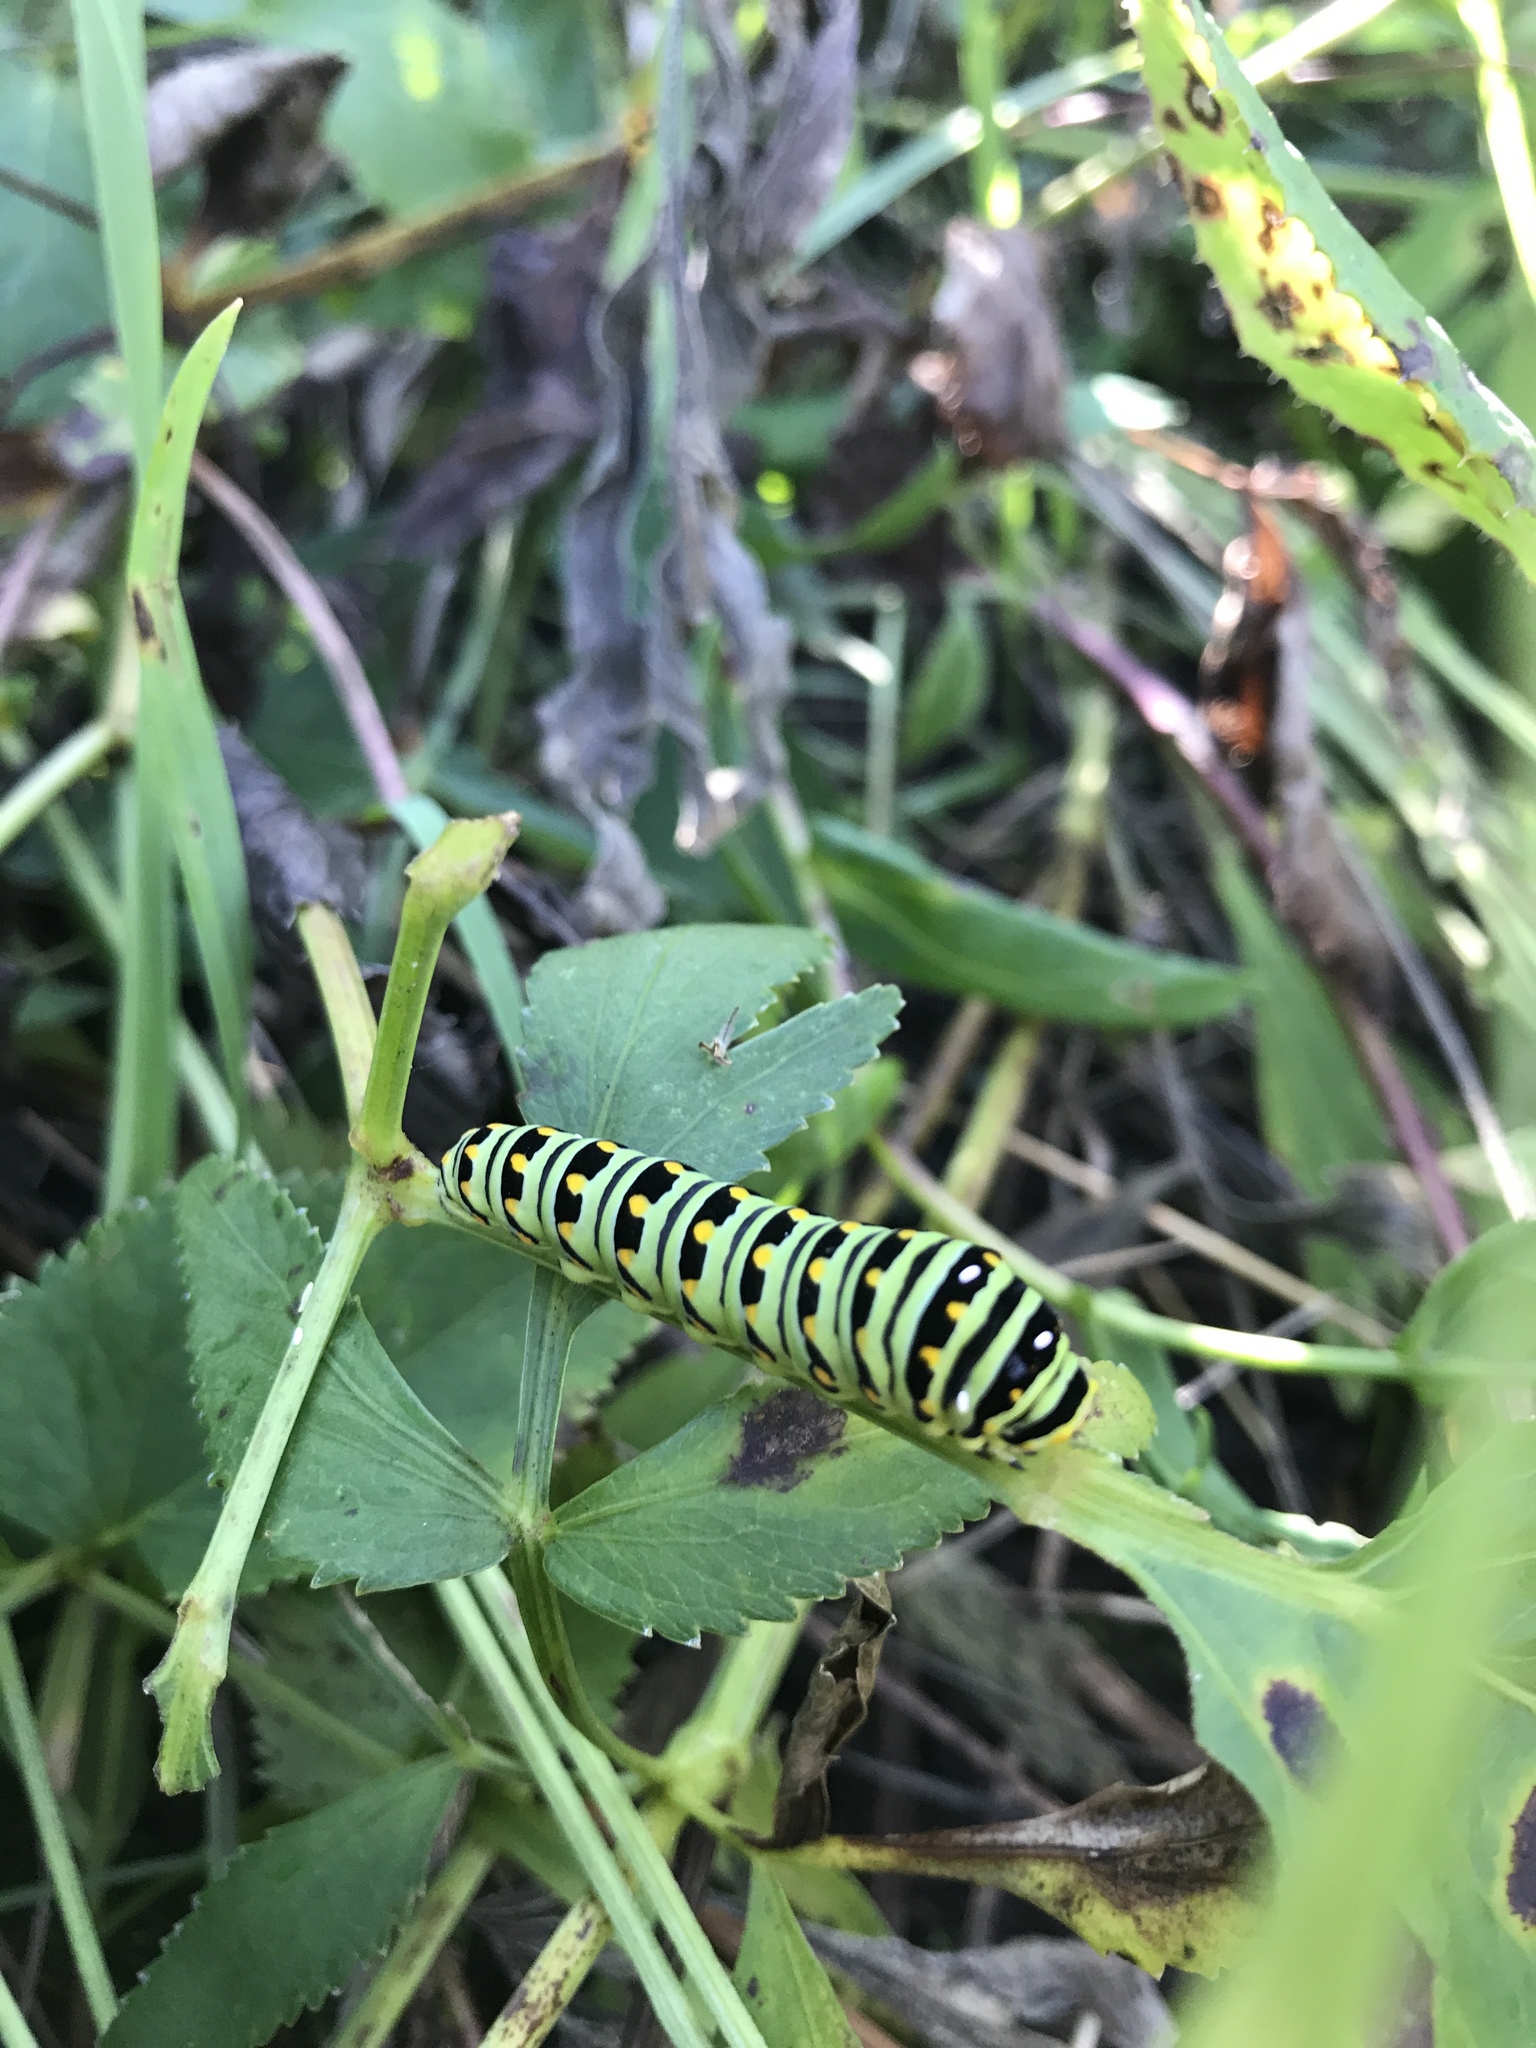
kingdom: Animalia
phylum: Arthropoda
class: Insecta
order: Lepidoptera
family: Papilionidae
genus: Papilio
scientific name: Papilio polyxenes
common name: Black swallowtail
